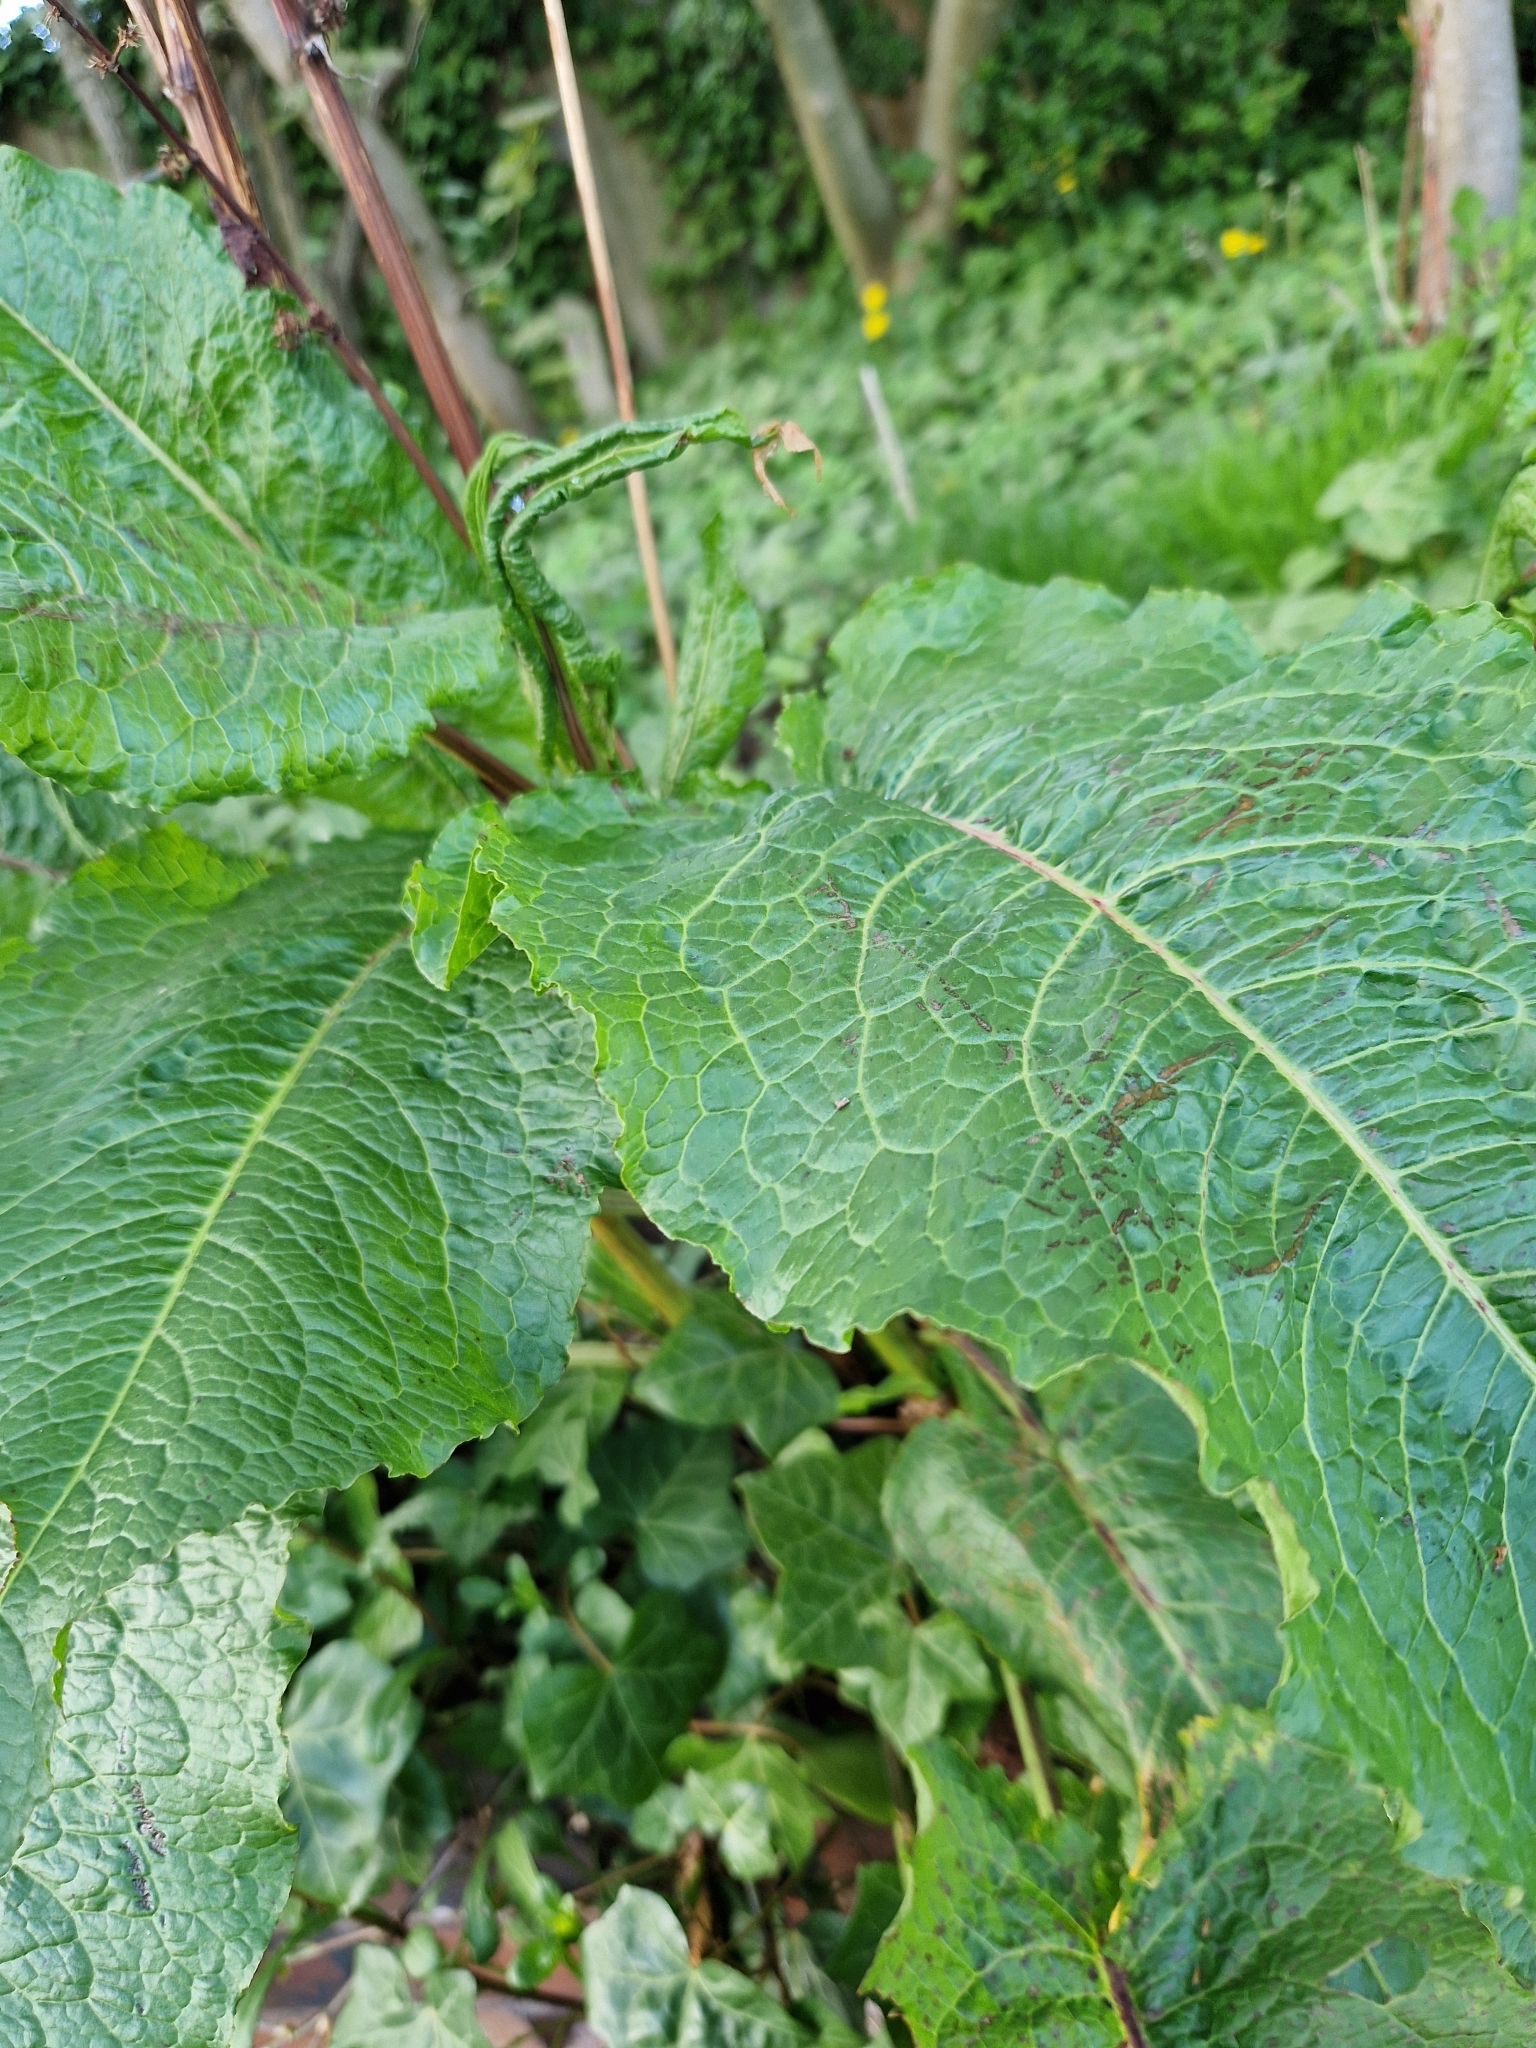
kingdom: Plantae
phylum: Tracheophyta
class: Magnoliopsida
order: Caryophyllales
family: Polygonaceae
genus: Rumex
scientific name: Rumex obtusifolius
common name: Bitter dock
